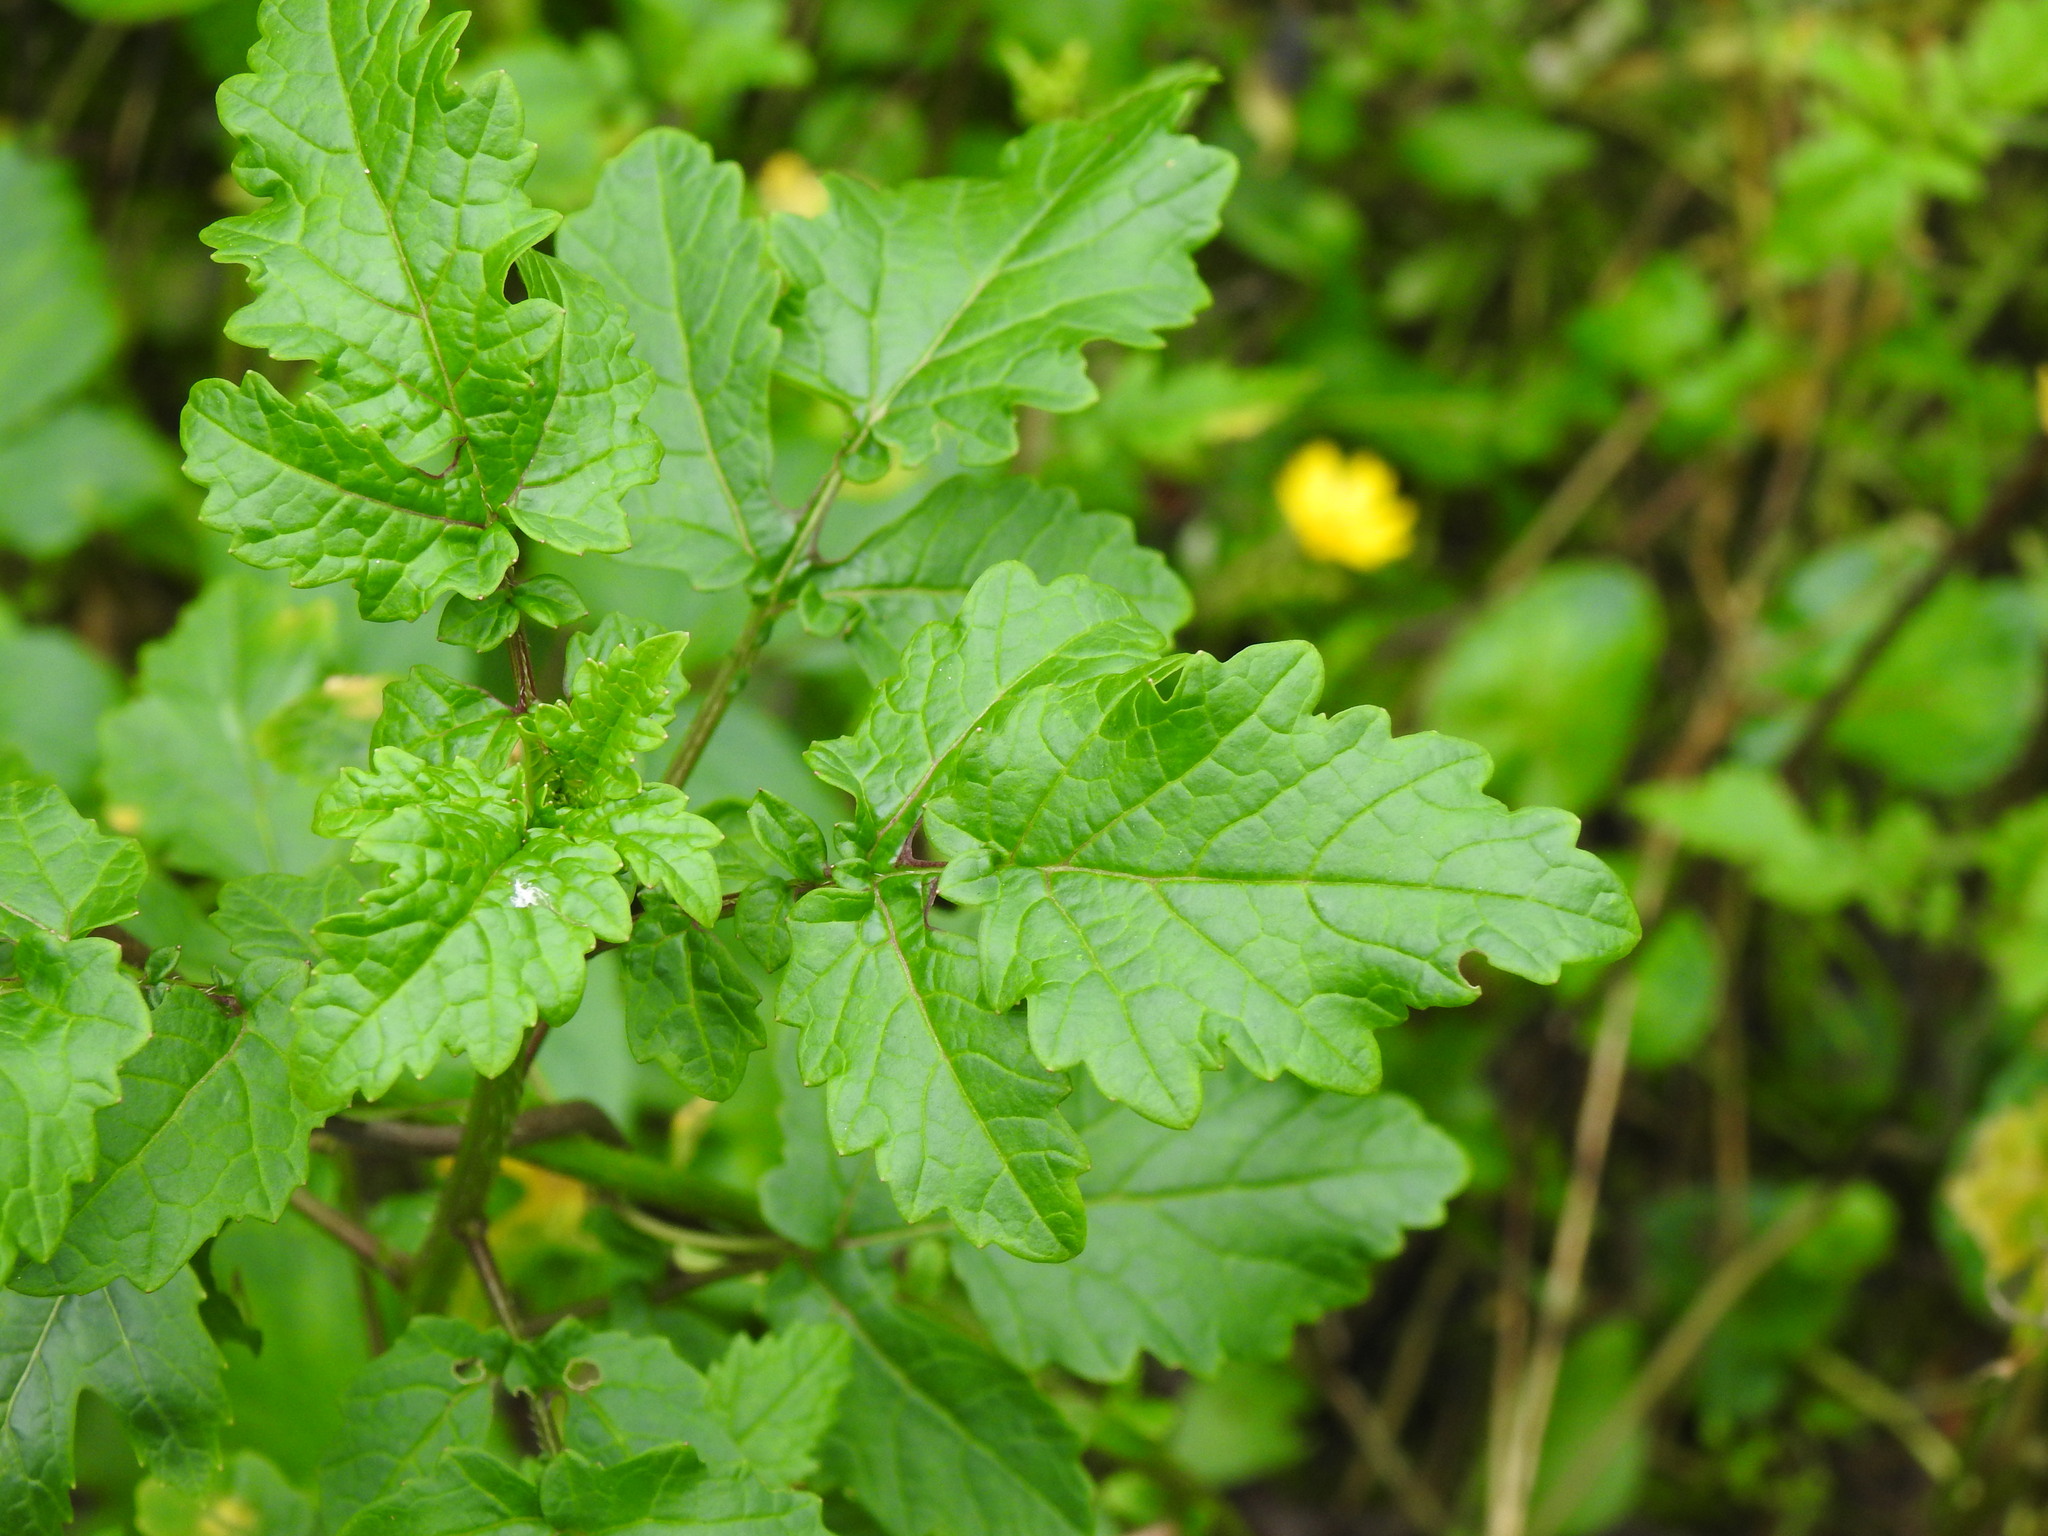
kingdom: Plantae
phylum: Tracheophyta
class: Magnoliopsida
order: Brassicales
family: Brassicaceae
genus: Sinapis
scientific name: Sinapis alba
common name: White mustard
